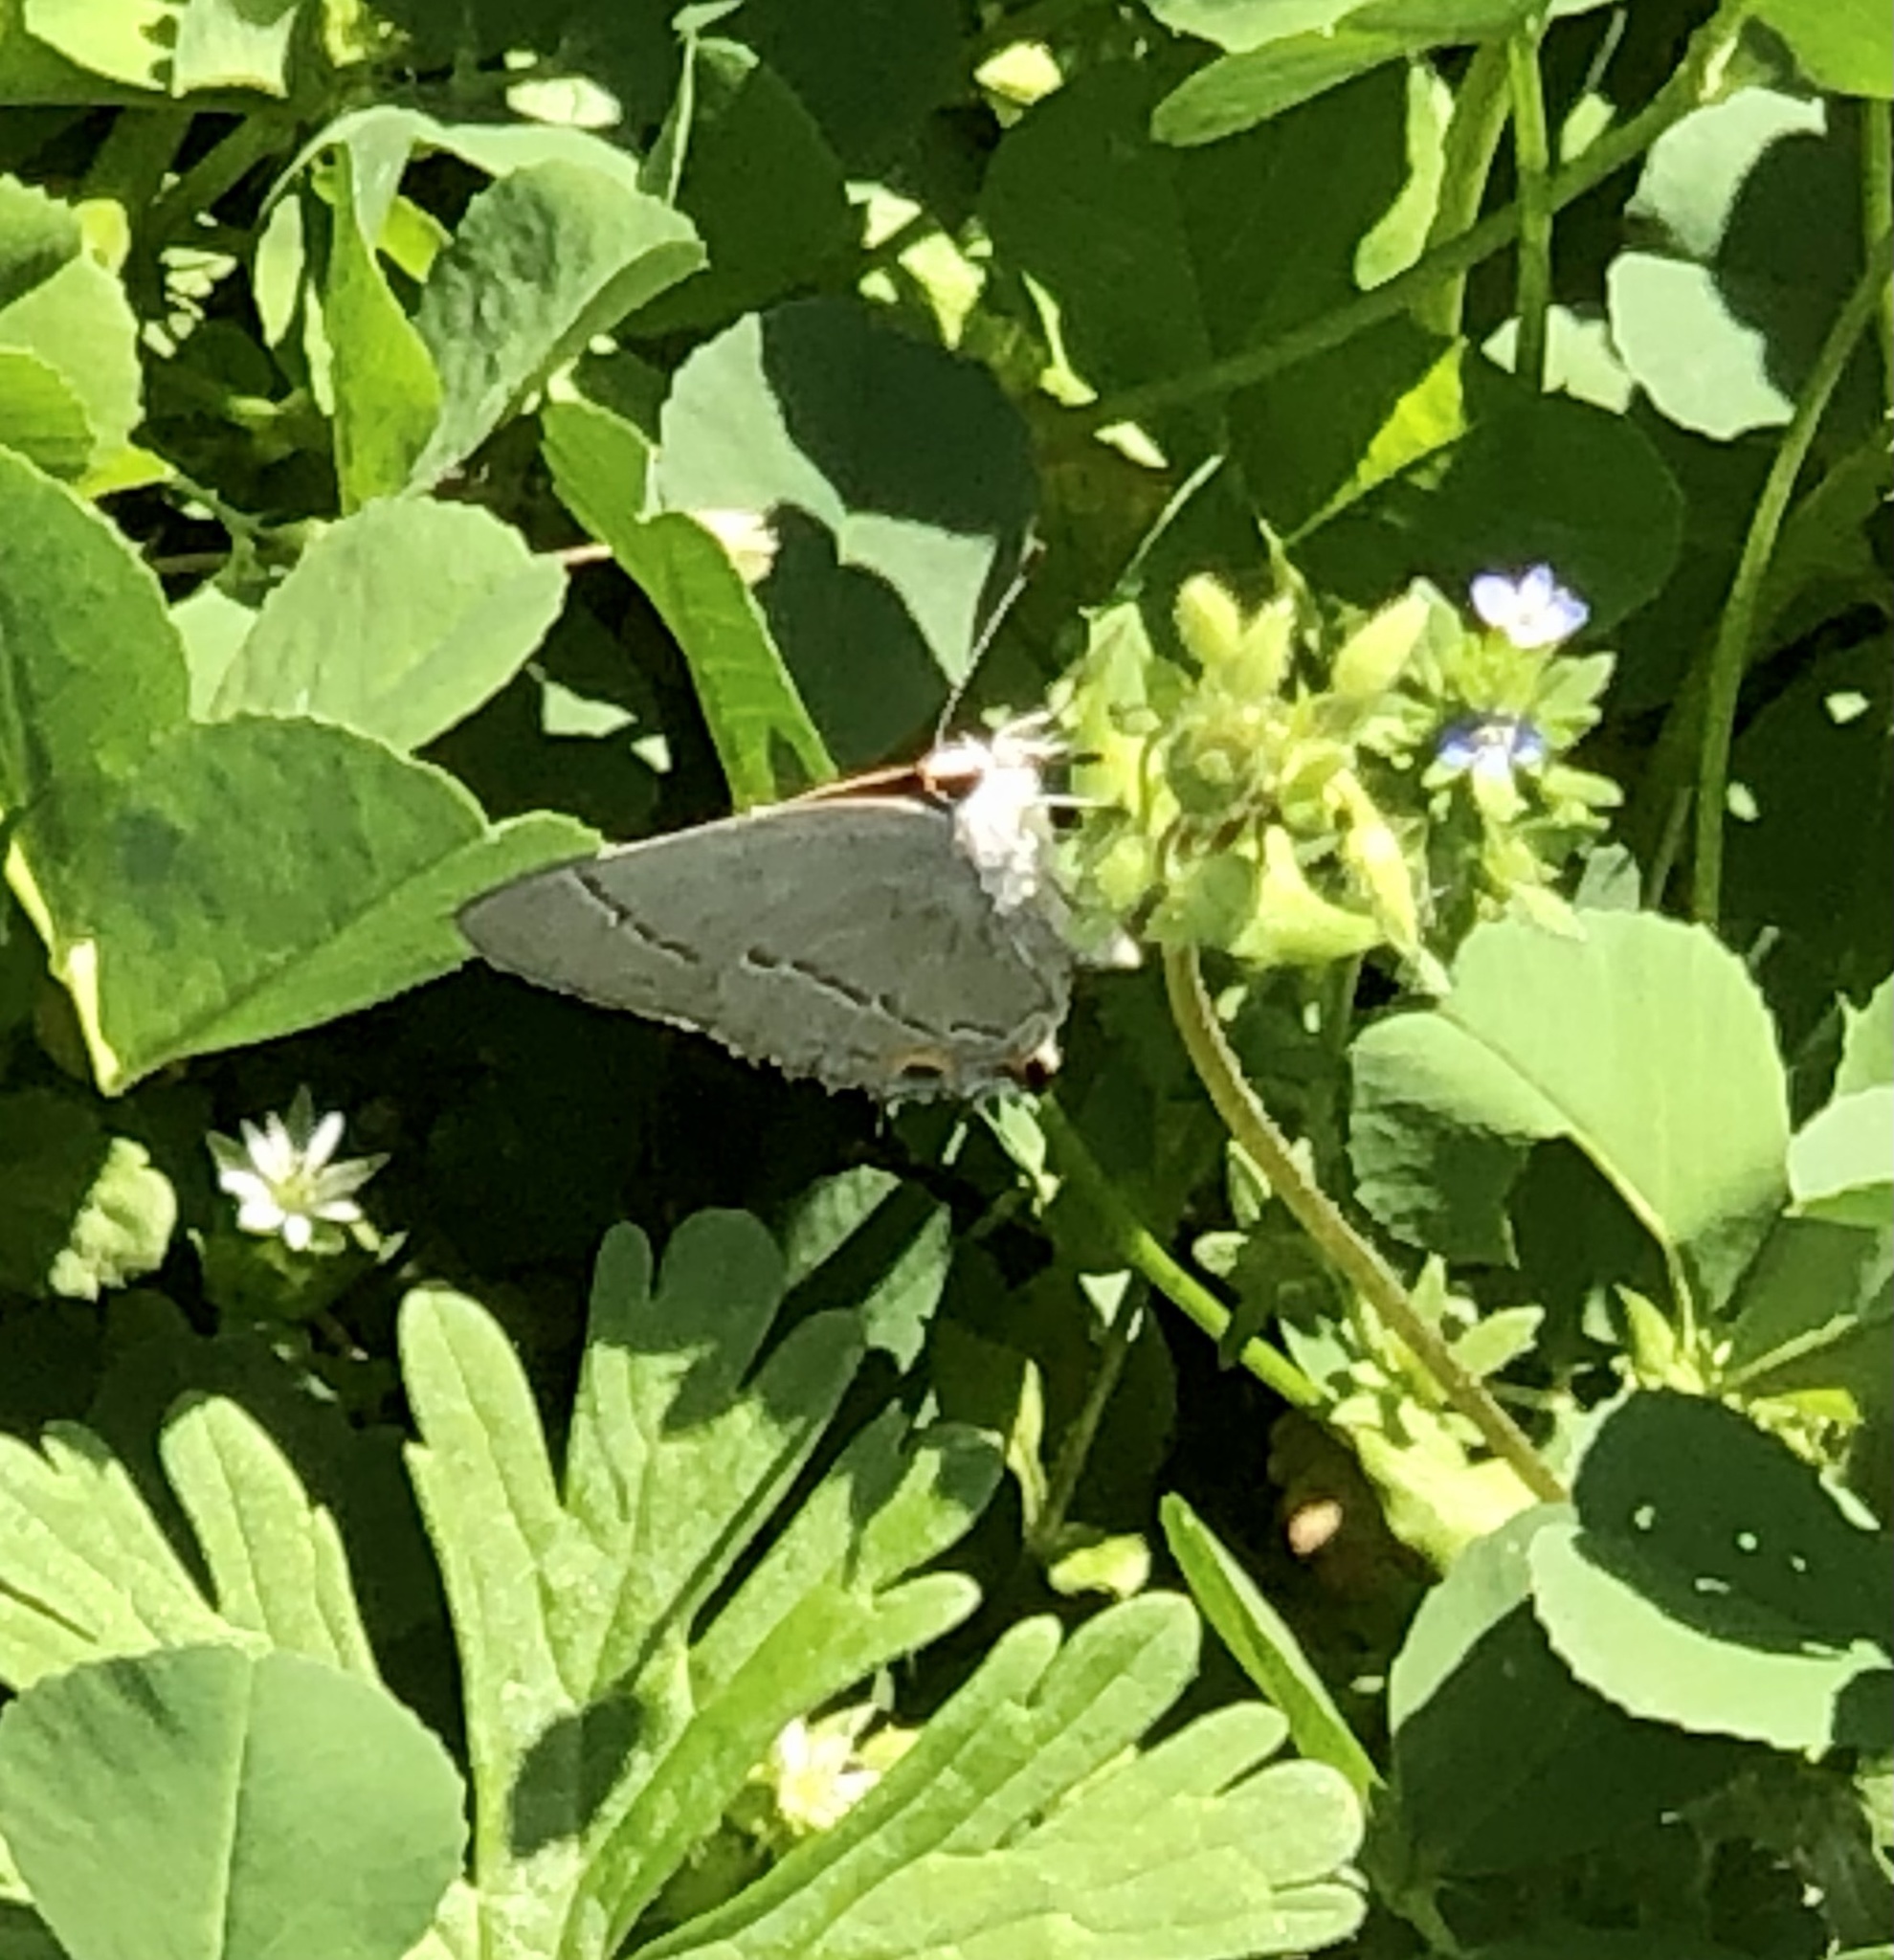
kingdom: Animalia
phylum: Arthropoda
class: Insecta
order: Lepidoptera
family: Lycaenidae
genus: Strymon
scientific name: Strymon melinus
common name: Gray hairstreak
